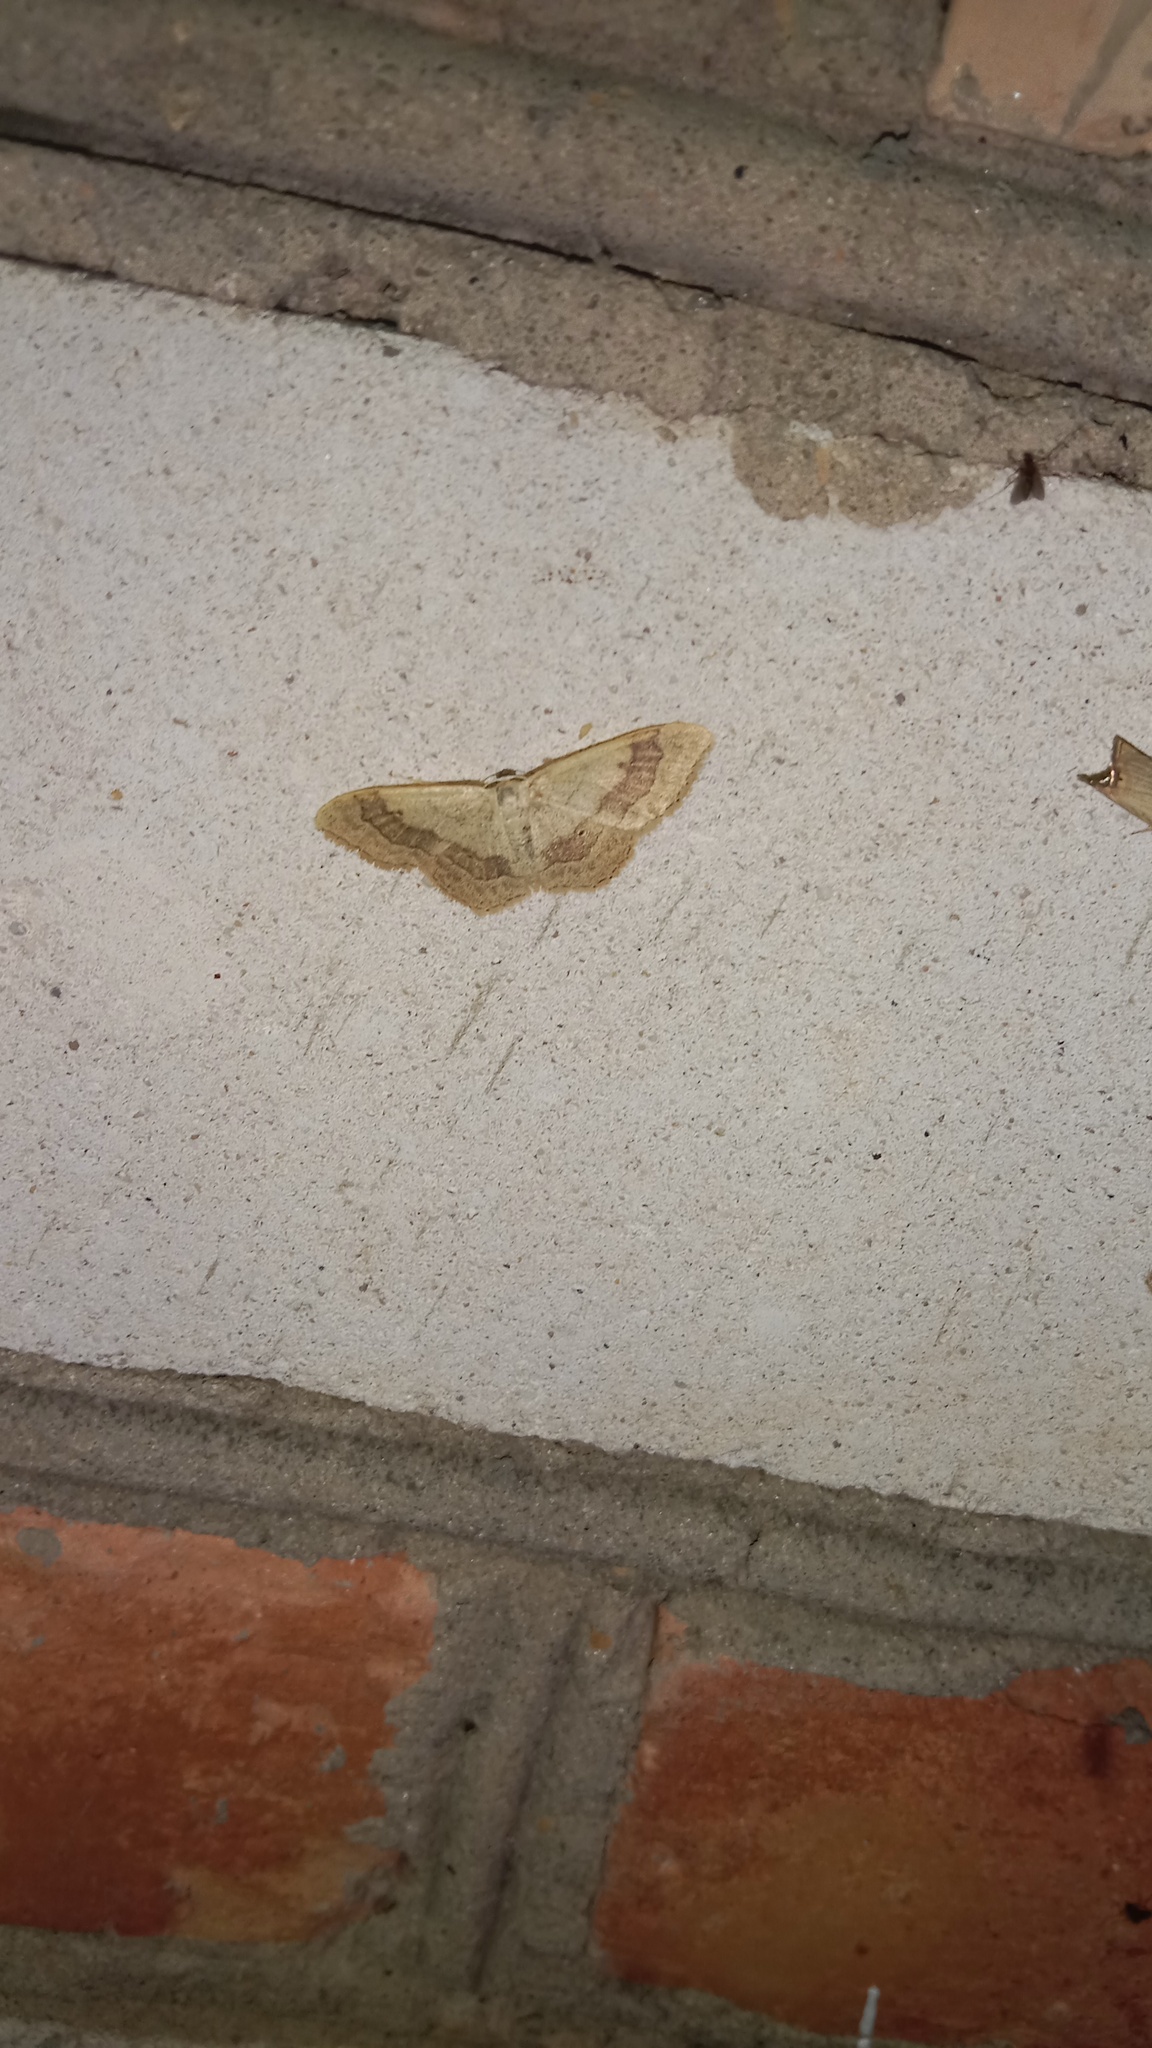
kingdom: Animalia
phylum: Arthropoda
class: Insecta
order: Lepidoptera
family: Geometridae
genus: Idaea
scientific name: Idaea aversata
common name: Riband wave
